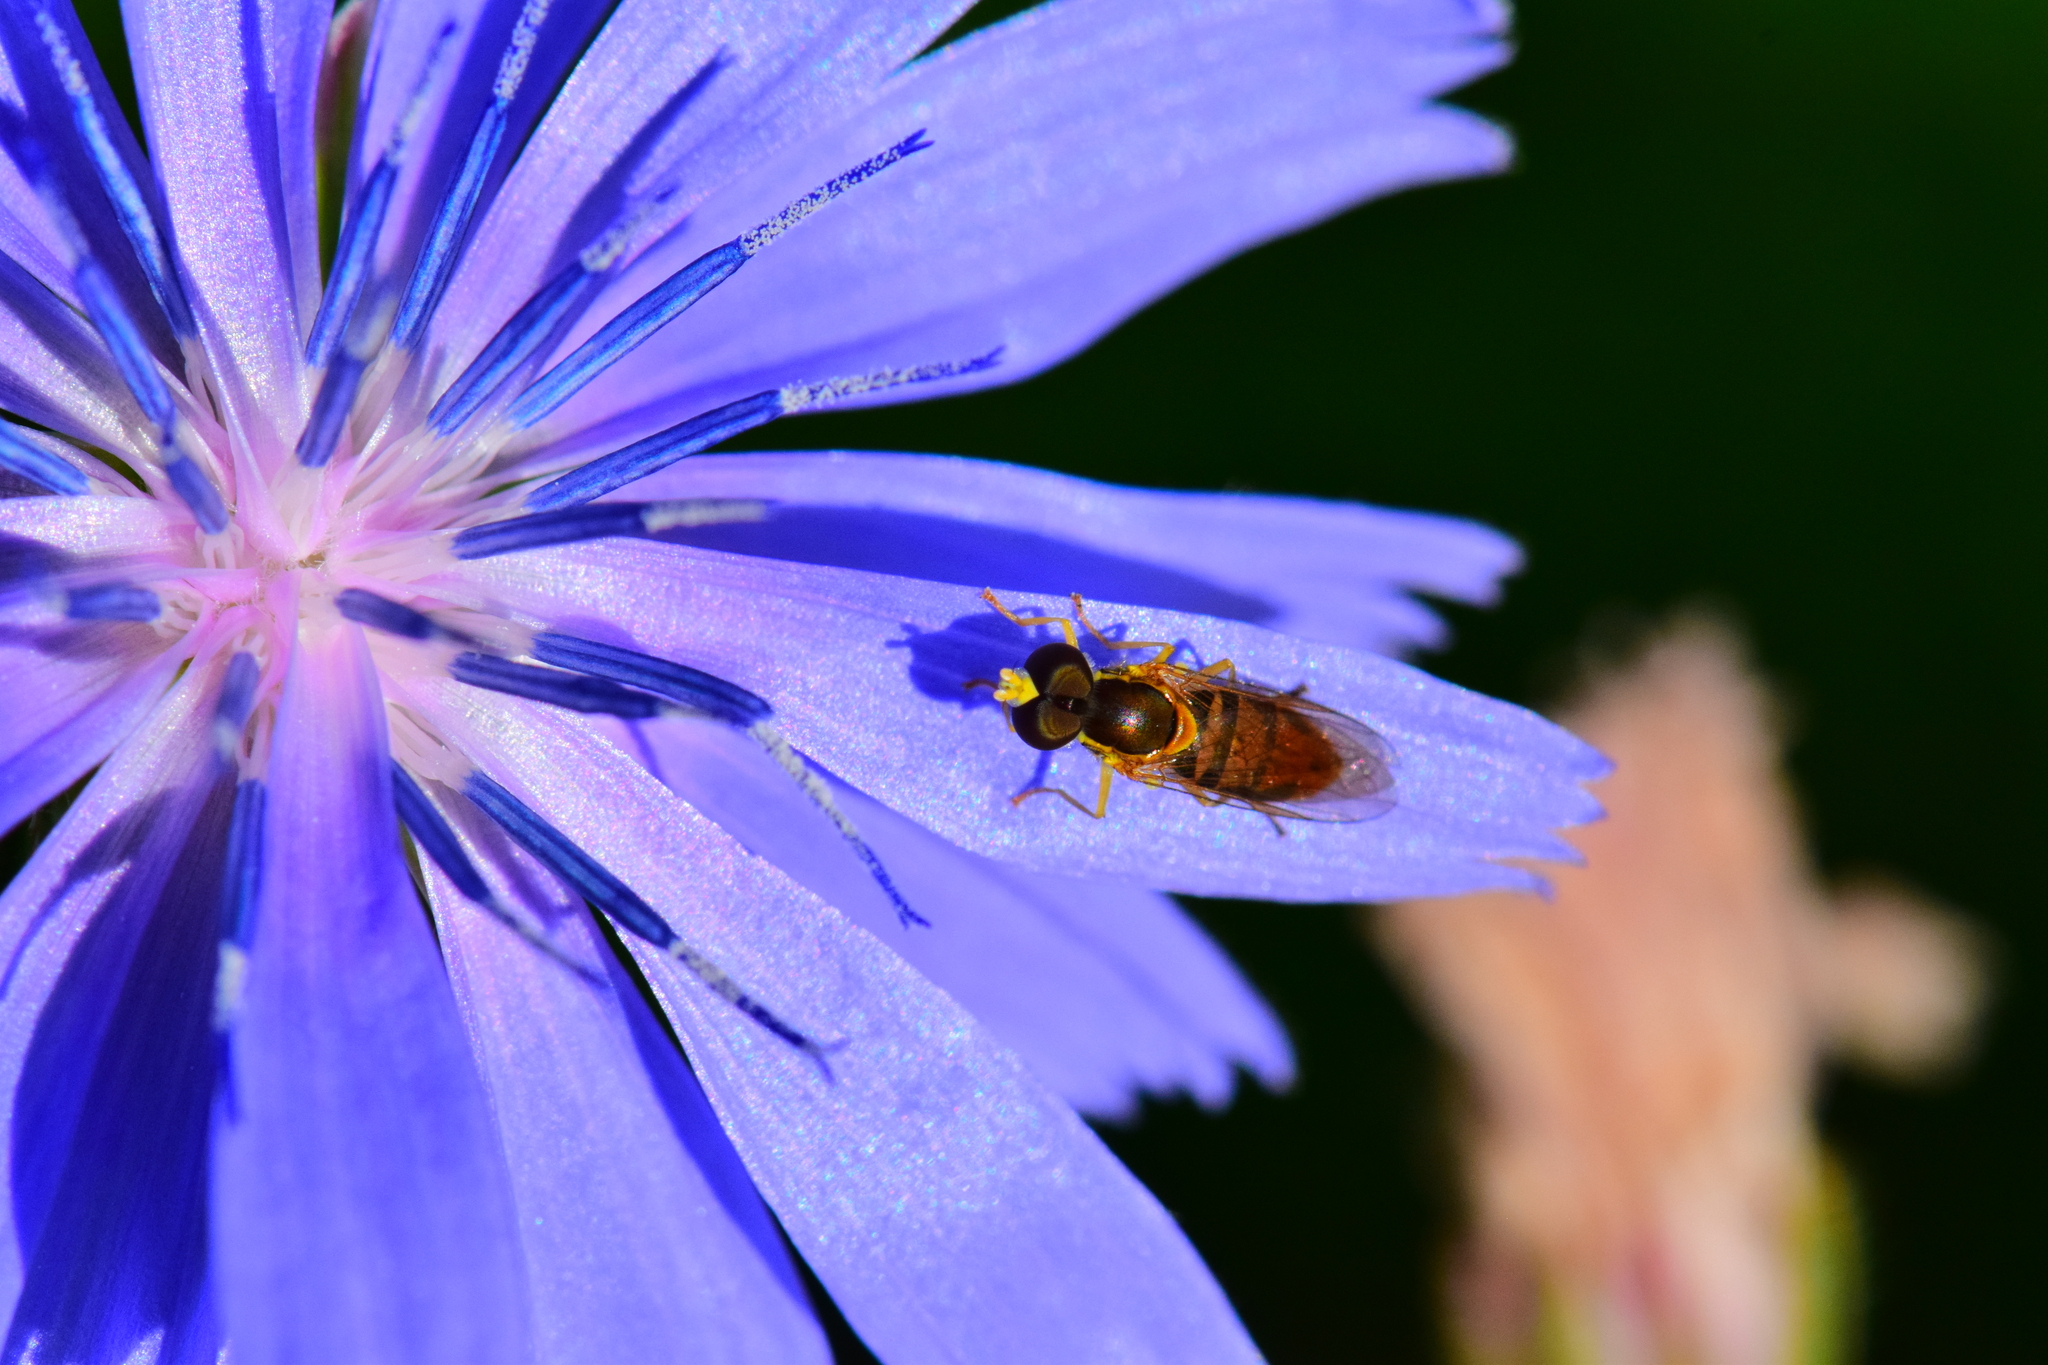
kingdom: Animalia
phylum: Arthropoda
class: Insecta
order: Diptera
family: Syrphidae
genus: Toxomerus
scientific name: Toxomerus marginatus
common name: Syrphid fly
